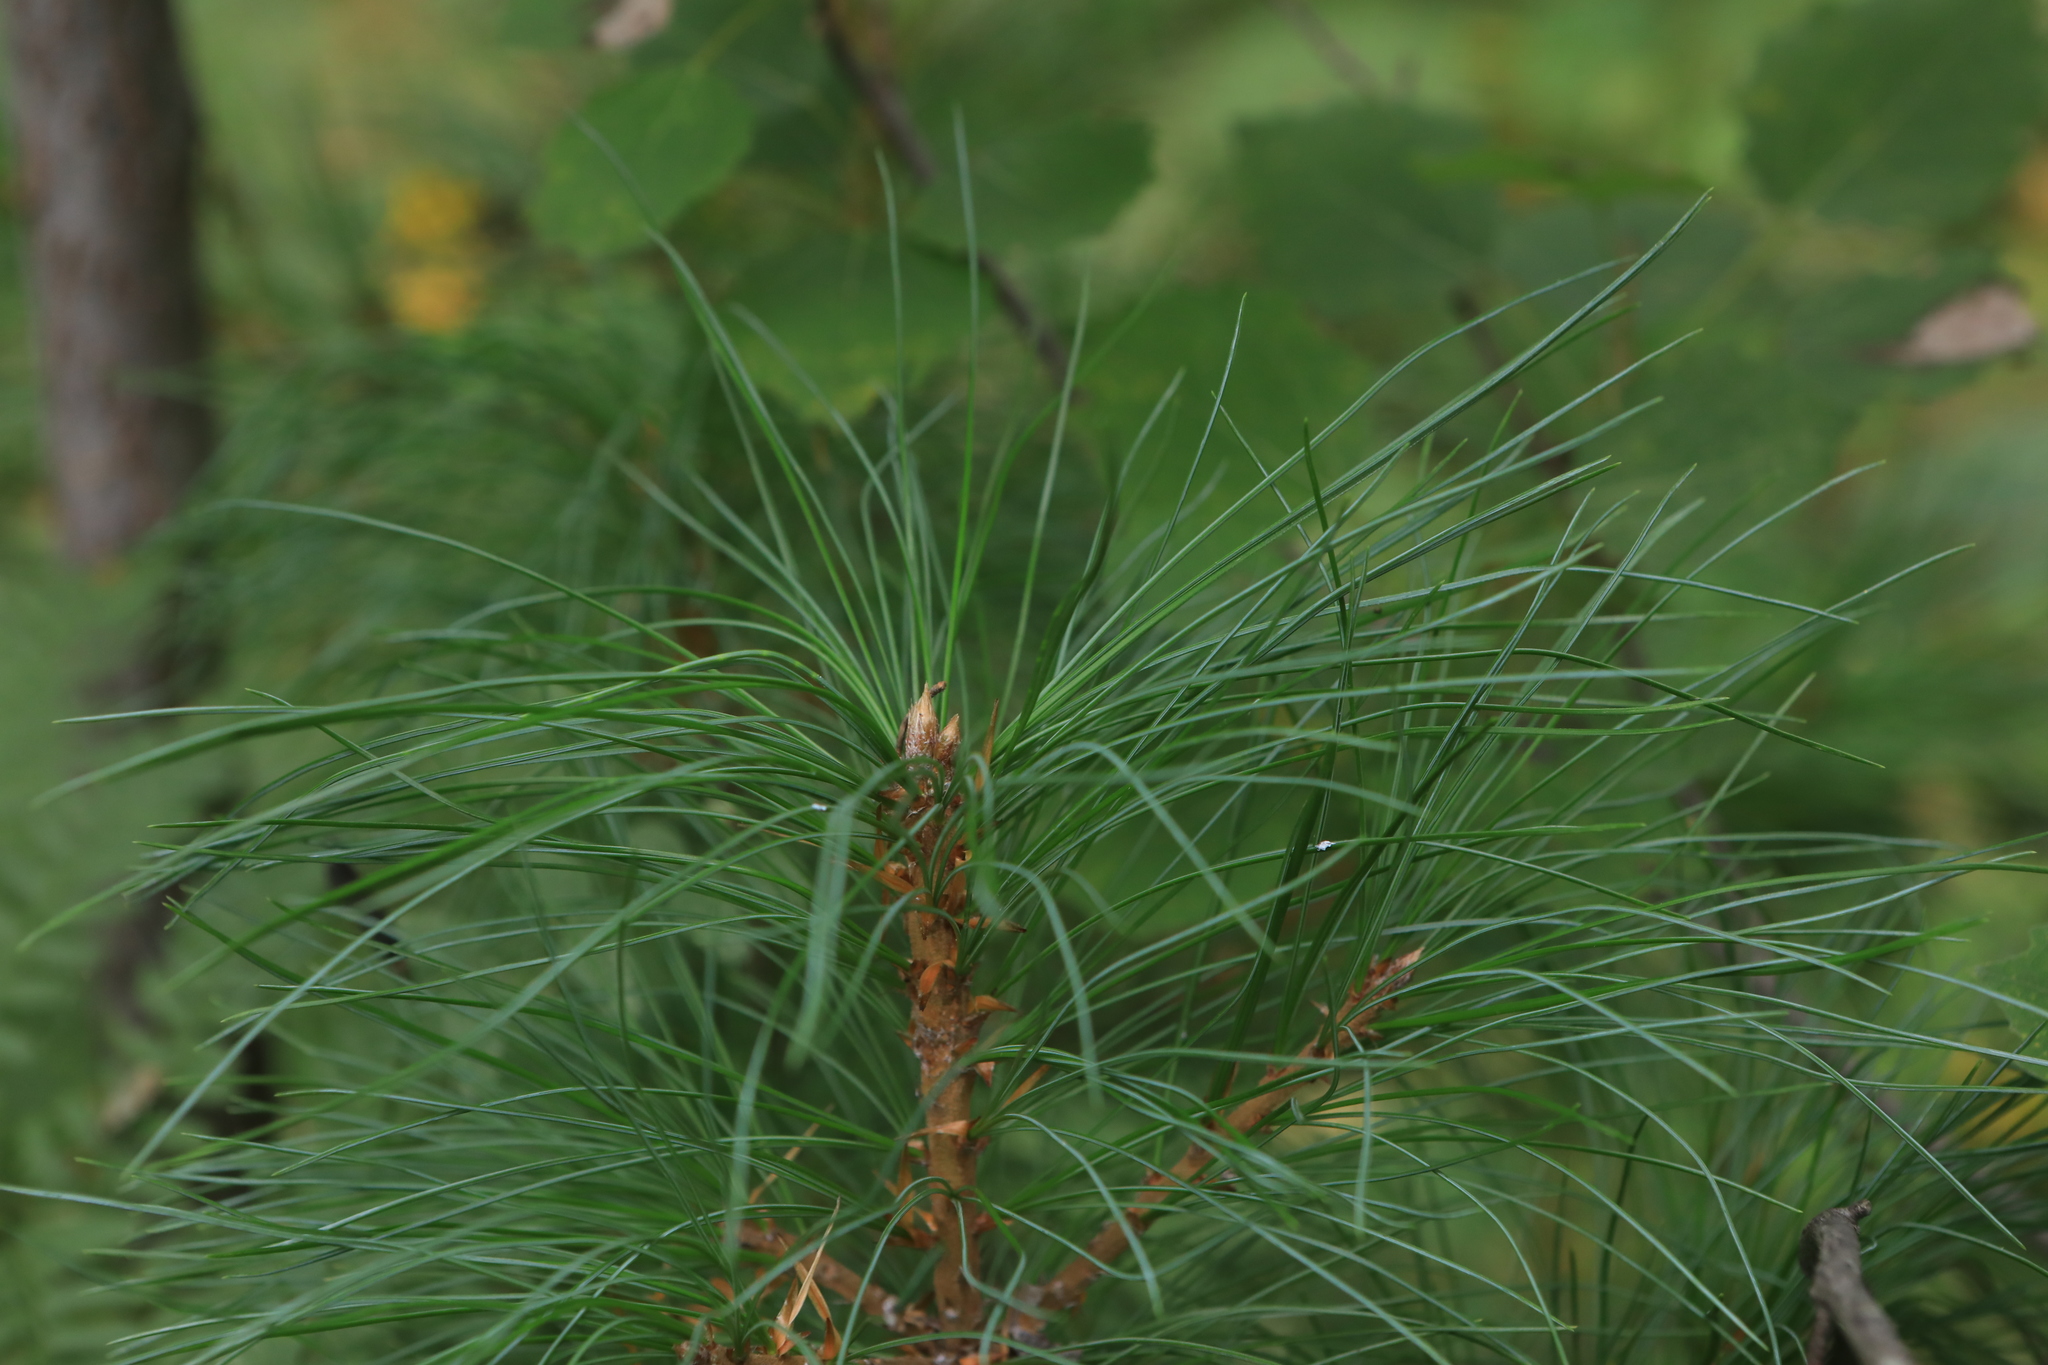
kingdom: Plantae
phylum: Tracheophyta
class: Pinopsida
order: Pinales
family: Pinaceae
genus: Pinus
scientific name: Pinus sibirica
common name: Siberian pine
